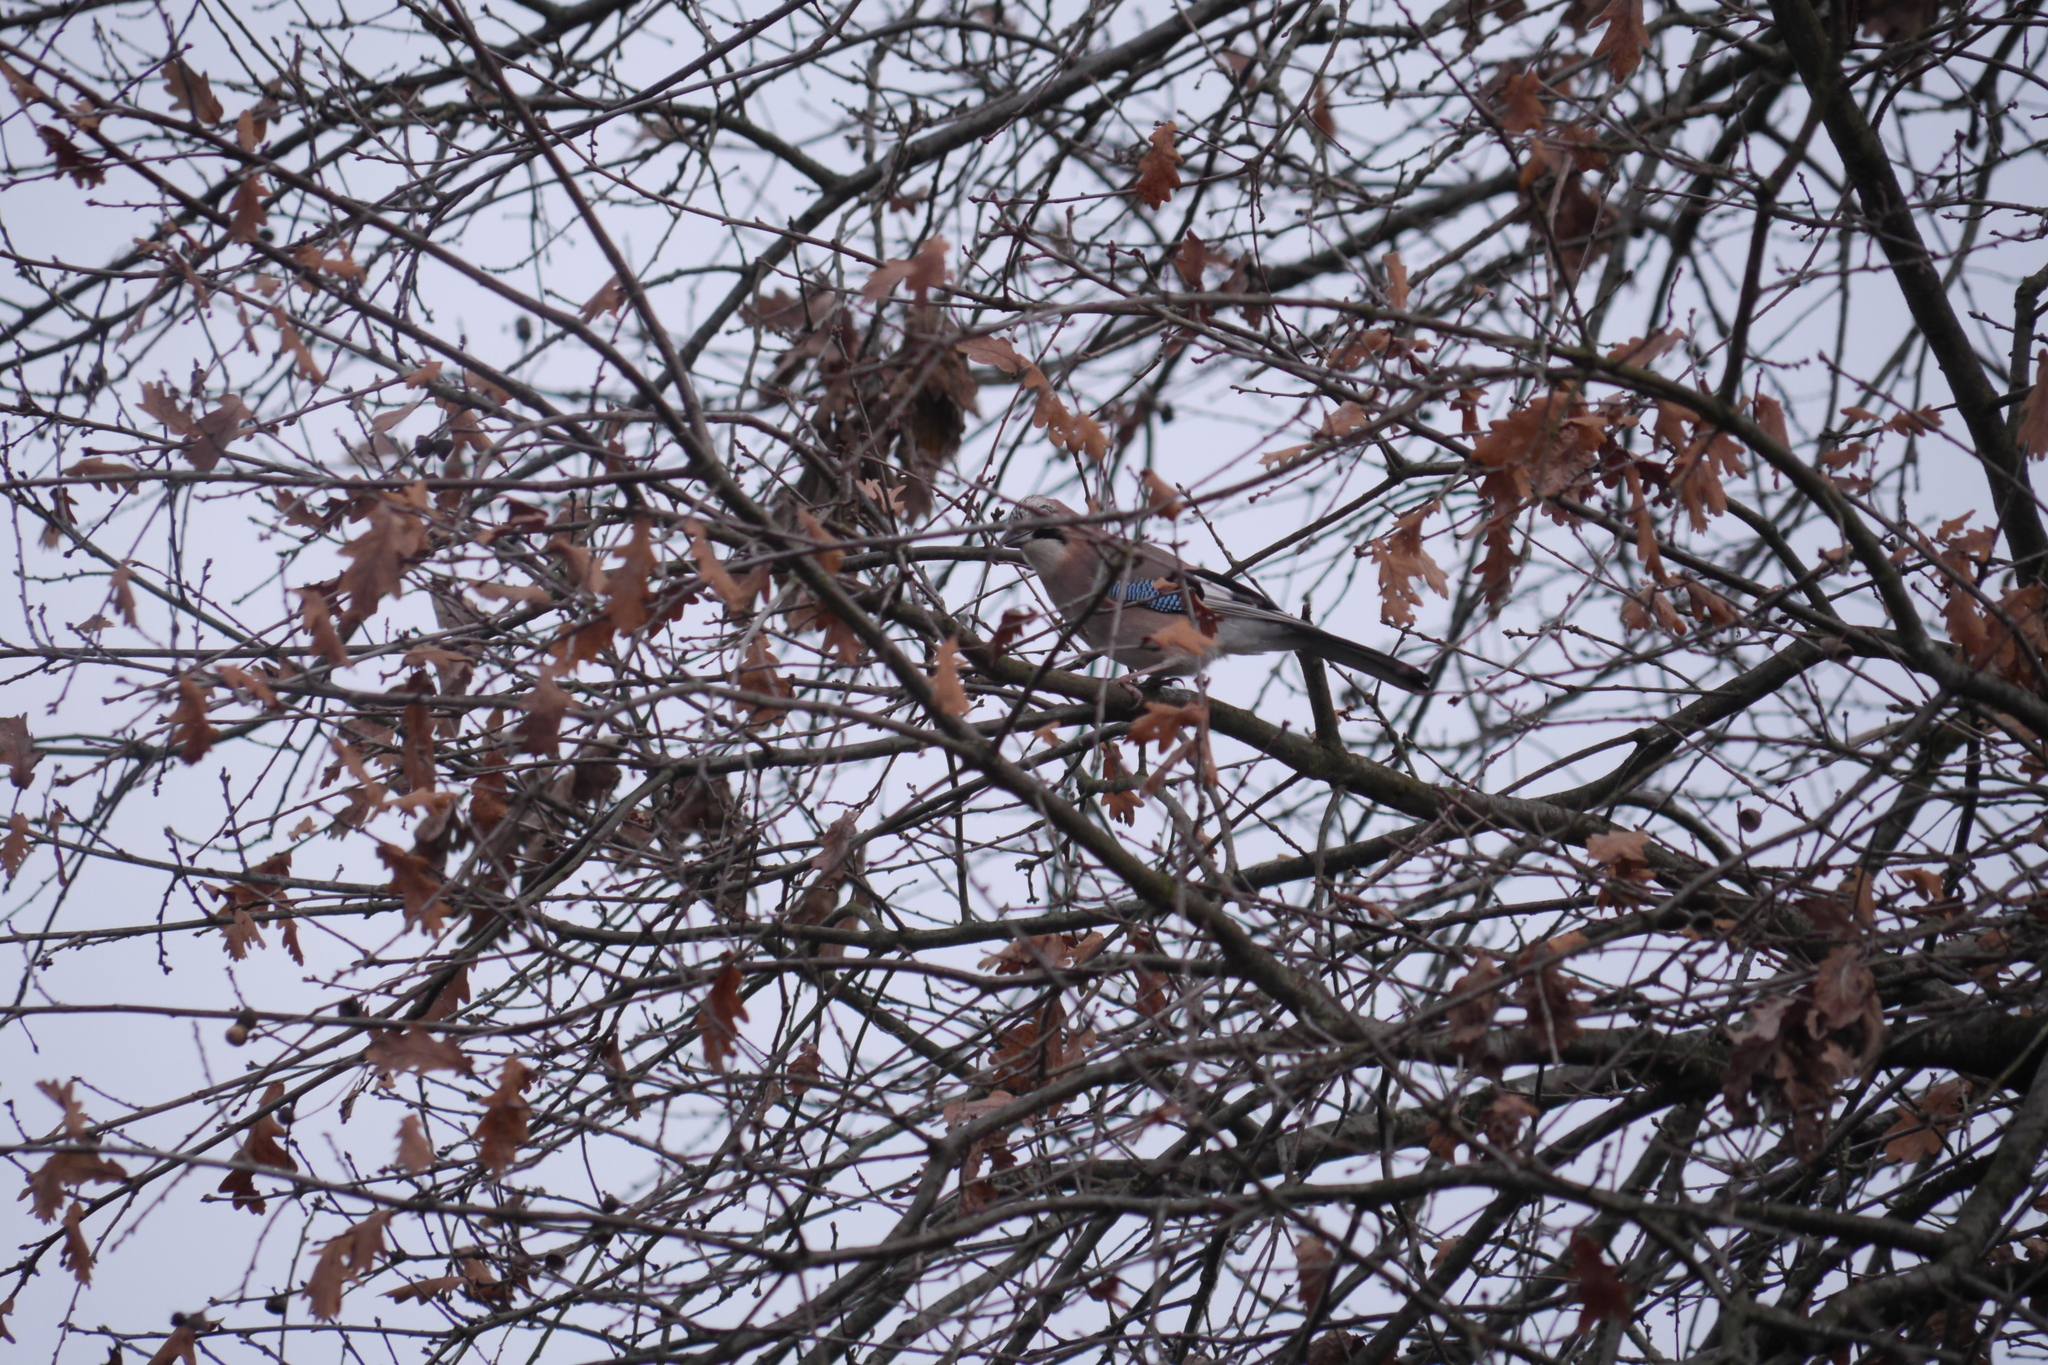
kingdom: Animalia
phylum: Chordata
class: Aves
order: Passeriformes
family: Corvidae
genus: Garrulus
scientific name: Garrulus glandarius
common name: Eurasian jay
